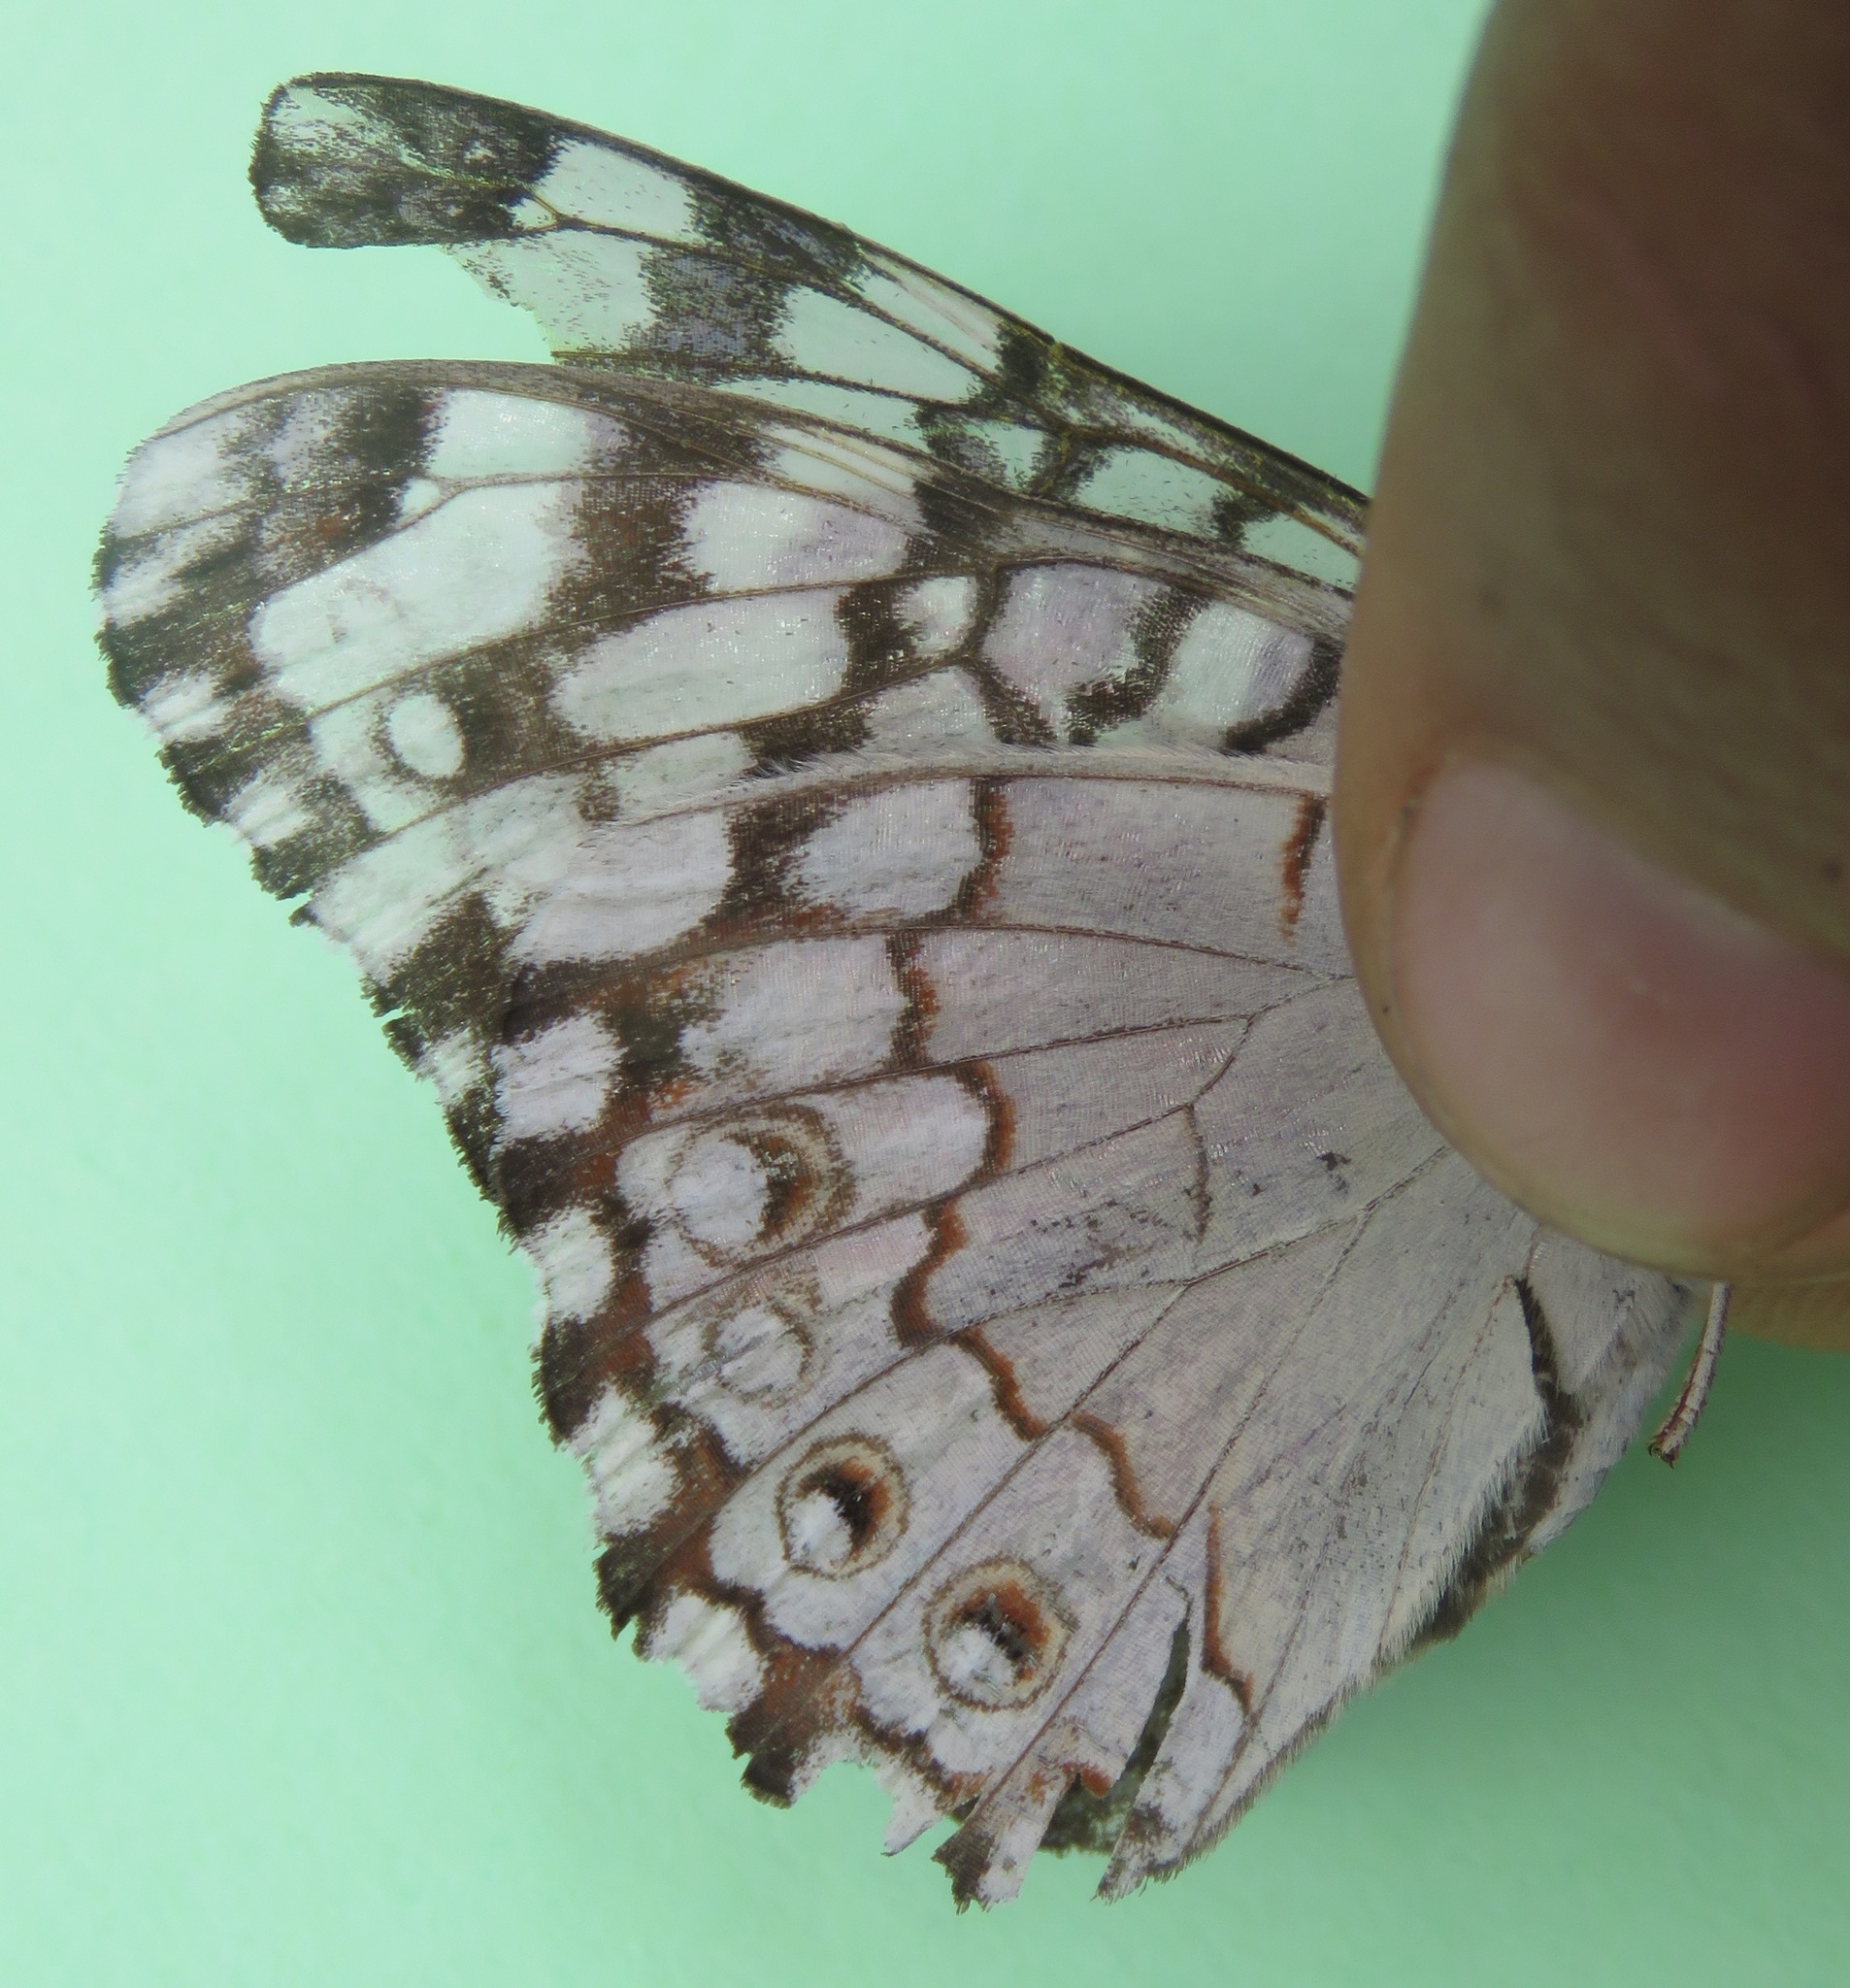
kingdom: Animalia
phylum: Arthropoda
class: Insecta
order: Lepidoptera
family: Nymphalidae
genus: Hamadryas
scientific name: Hamadryas februa
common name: Gray cracker
